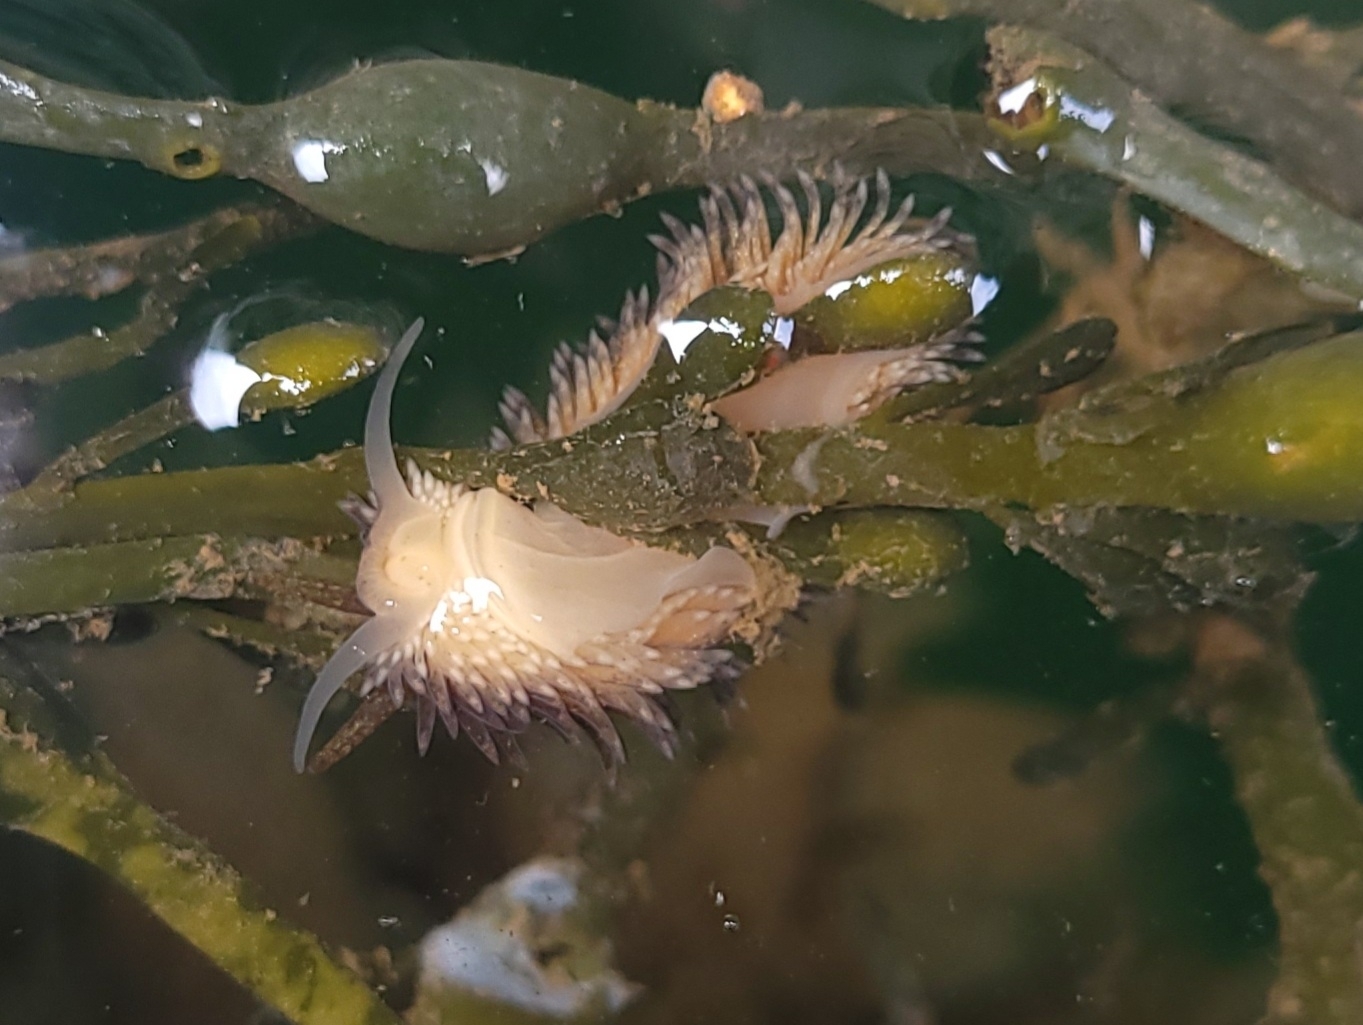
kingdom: Animalia
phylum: Mollusca
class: Gastropoda
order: Nudibranchia
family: Aeolidiidae
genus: Aeolidia
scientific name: Aeolidia papillosa
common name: Common grey sea slug
